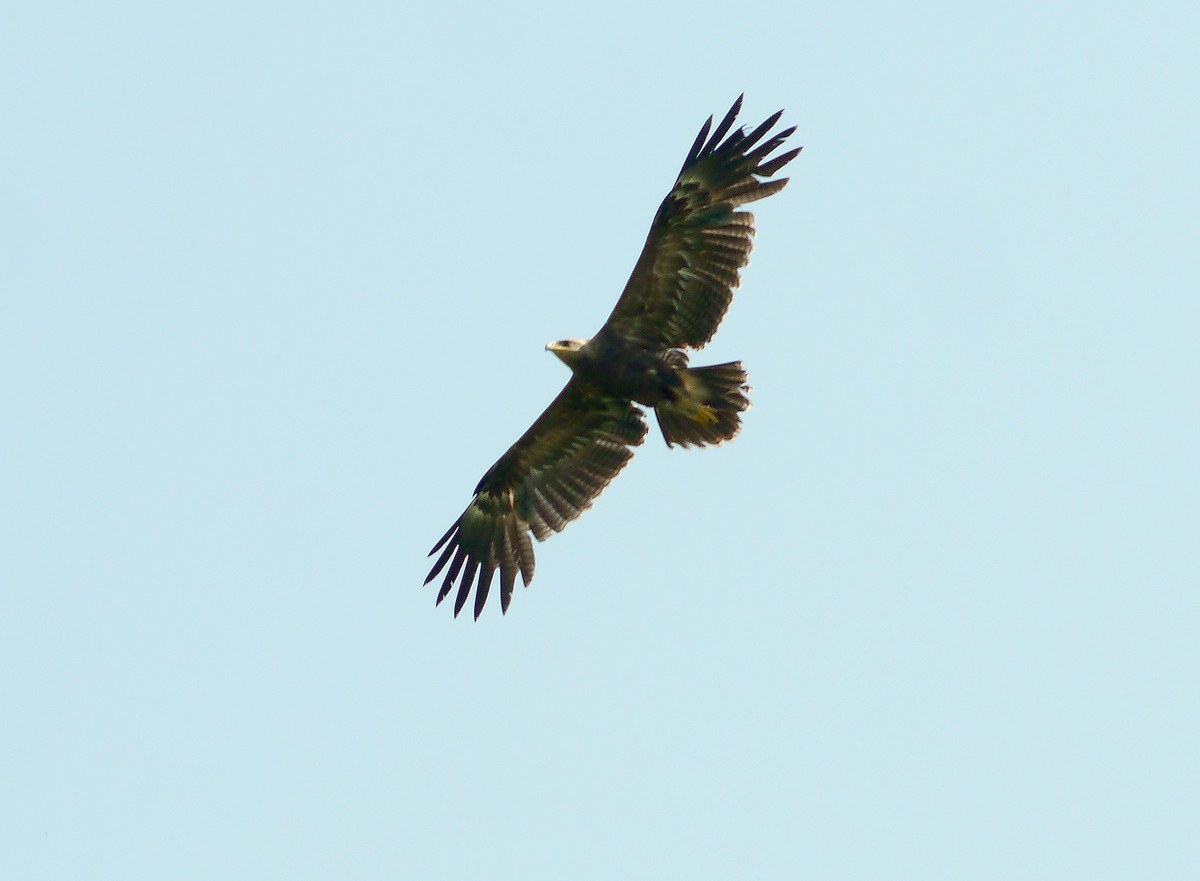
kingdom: Animalia
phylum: Chordata
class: Aves
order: Accipitriformes
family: Accipitridae
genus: Aquila
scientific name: Aquila pomarina
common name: Lesser spotted eagle
